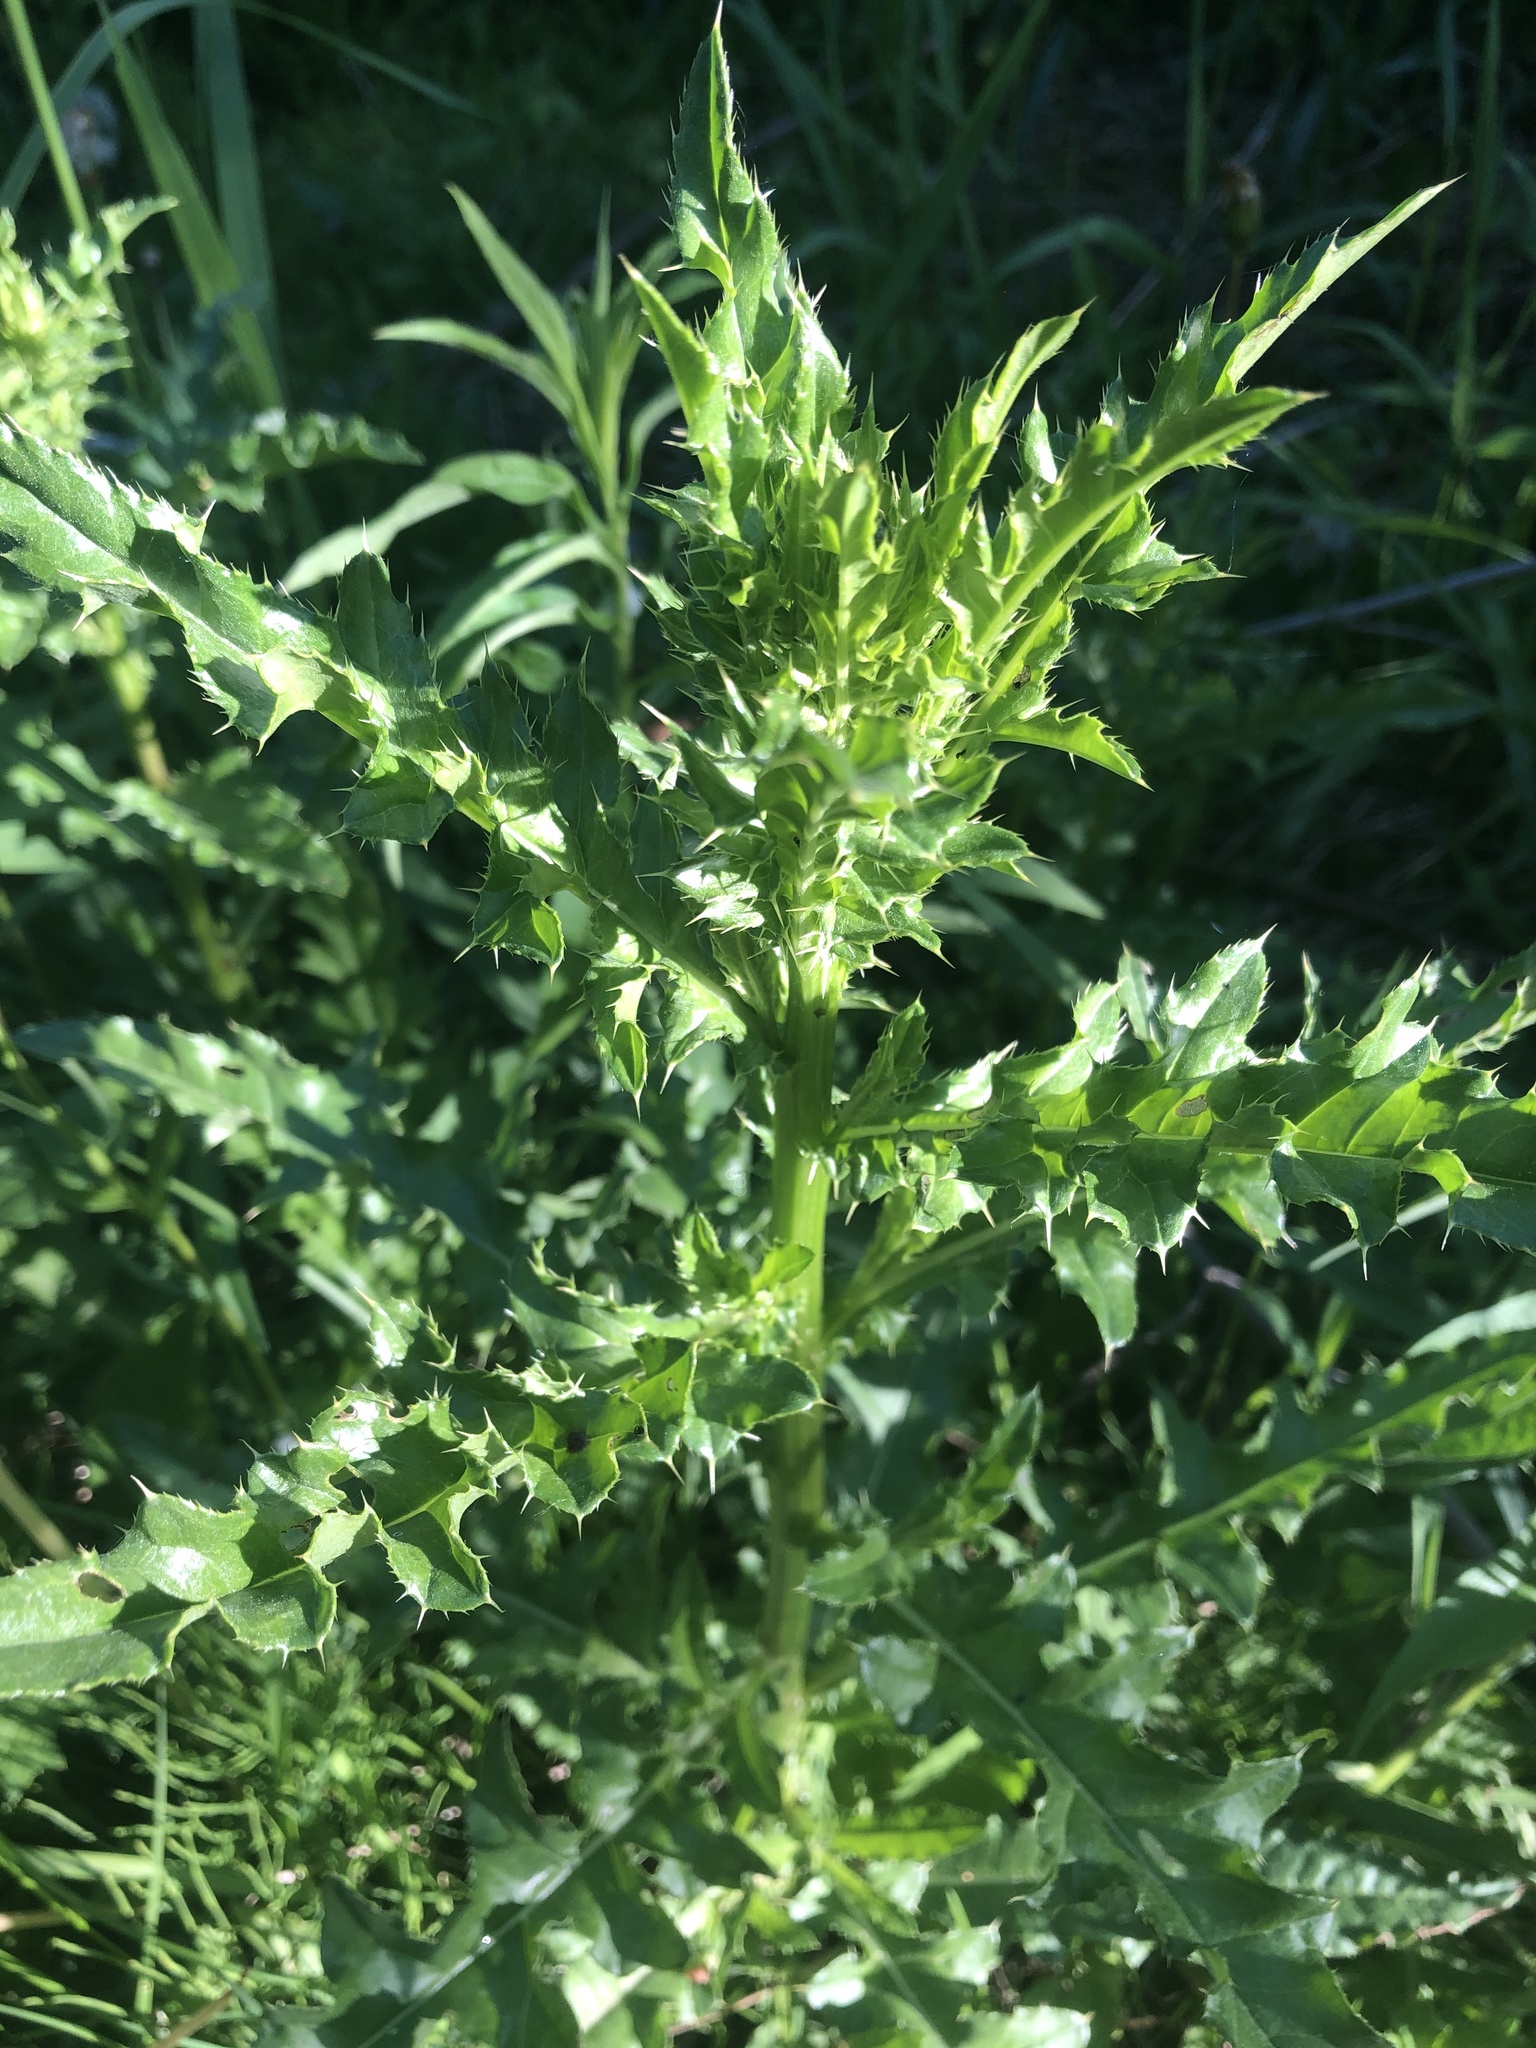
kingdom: Plantae
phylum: Tracheophyta
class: Magnoliopsida
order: Asterales
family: Asteraceae
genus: Cirsium
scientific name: Cirsium arvense
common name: Creeping thistle
